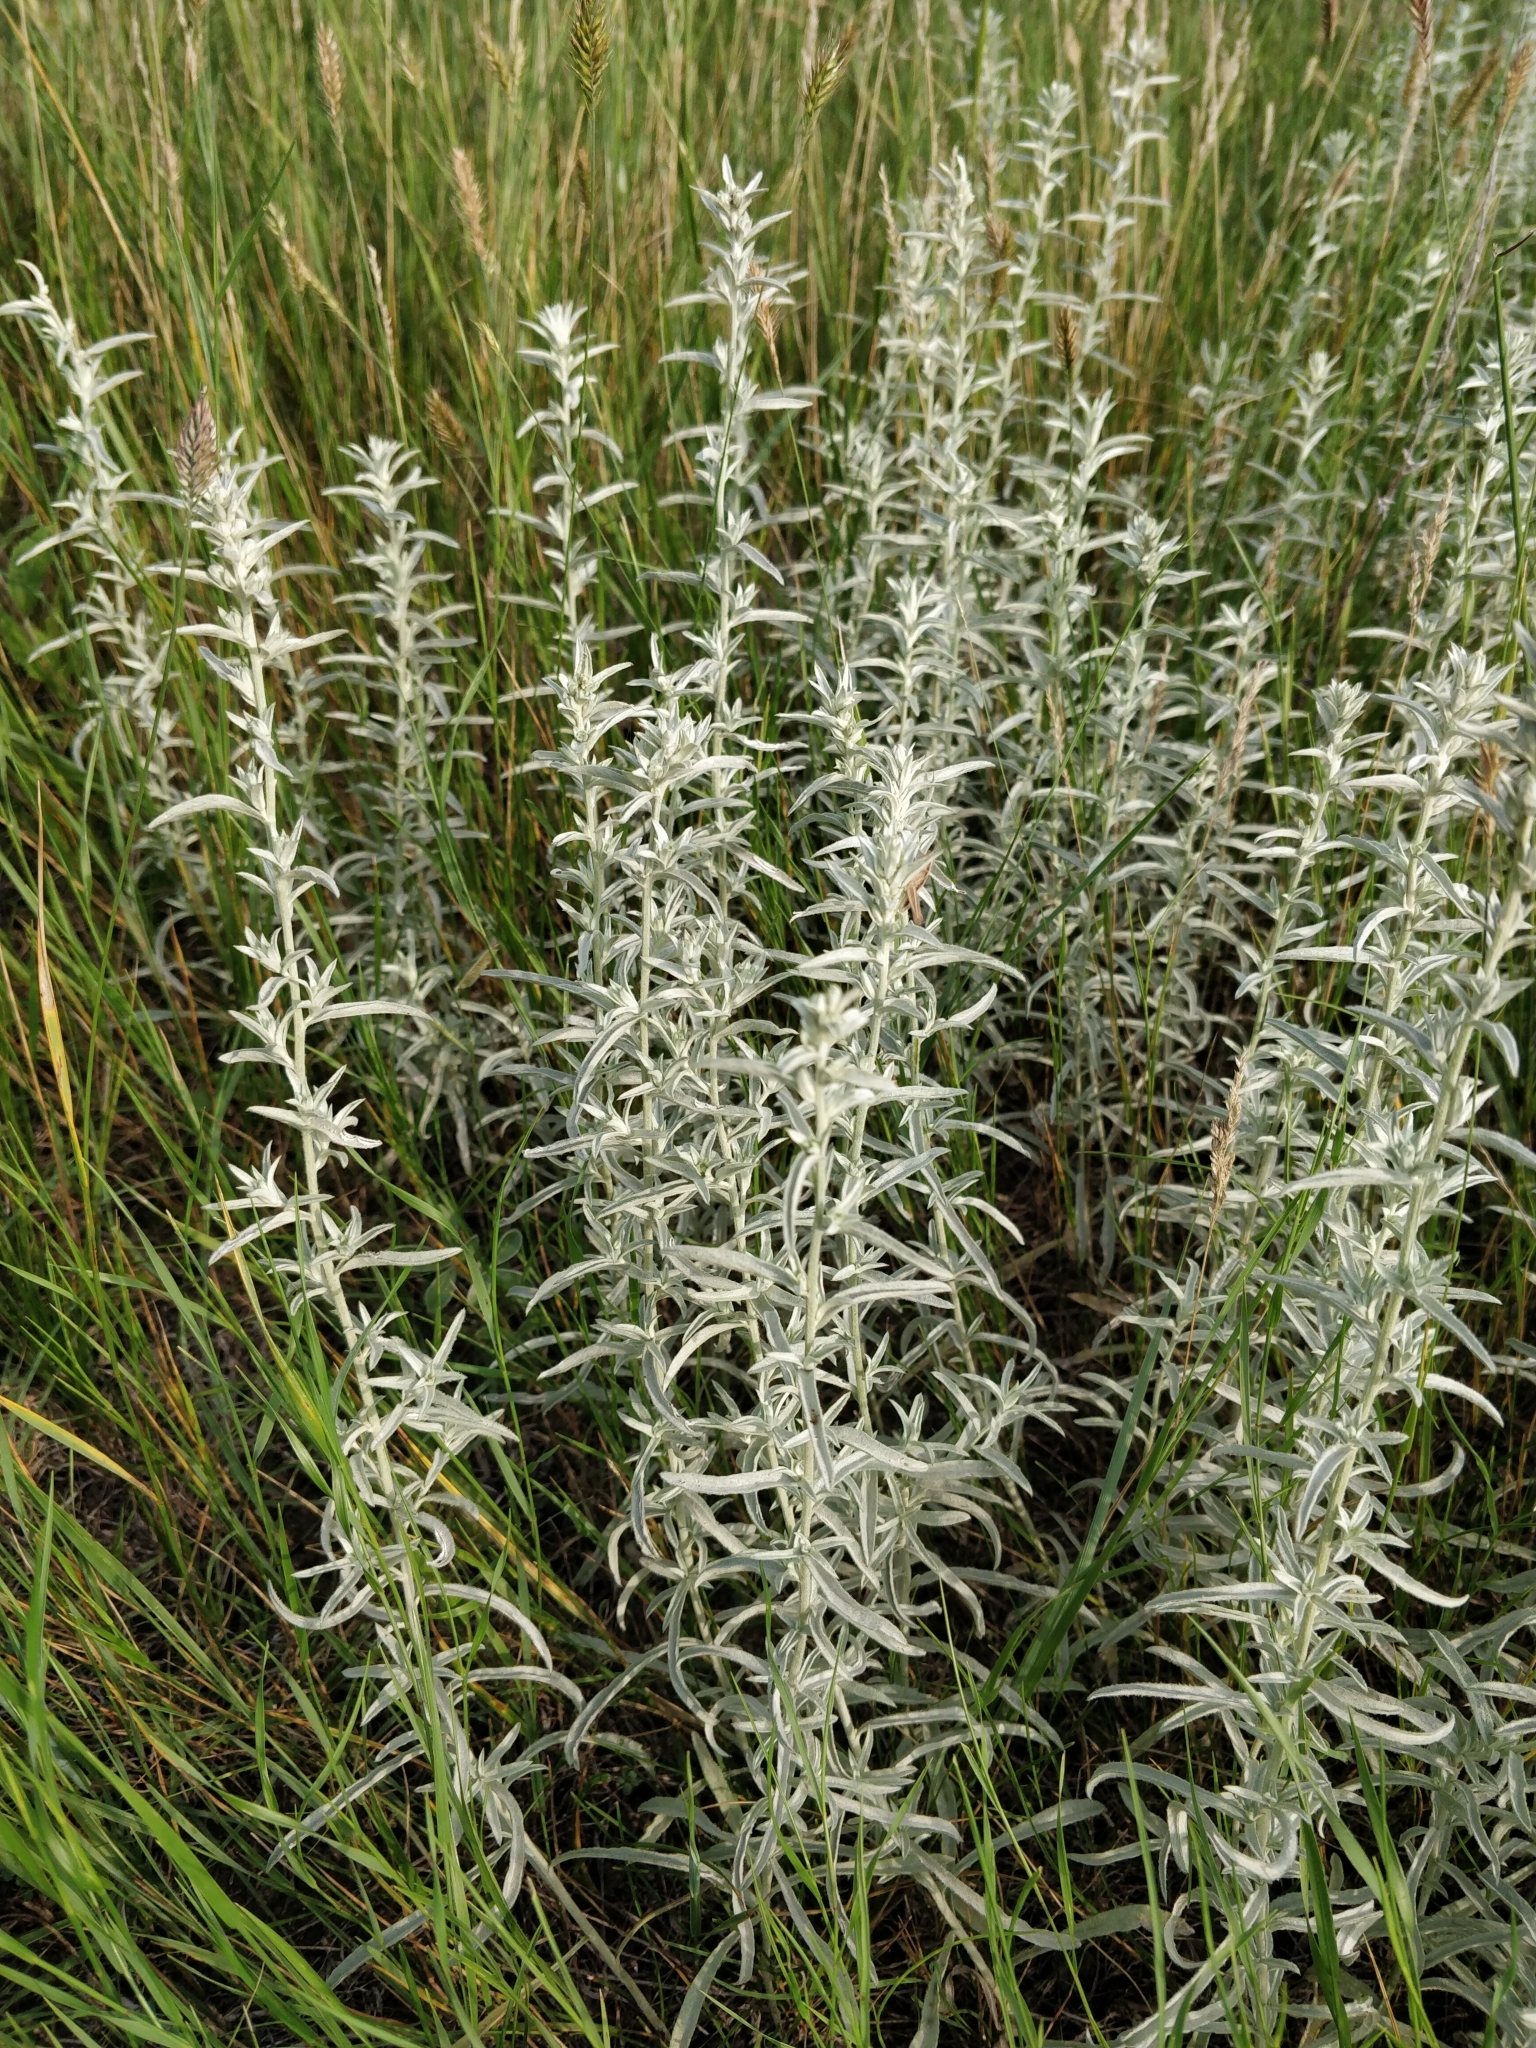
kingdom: Plantae
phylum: Tracheophyta
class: Magnoliopsida
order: Asterales
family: Asteraceae
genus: Artemisia
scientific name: Artemisia ludoviciana
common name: Western mugwort
